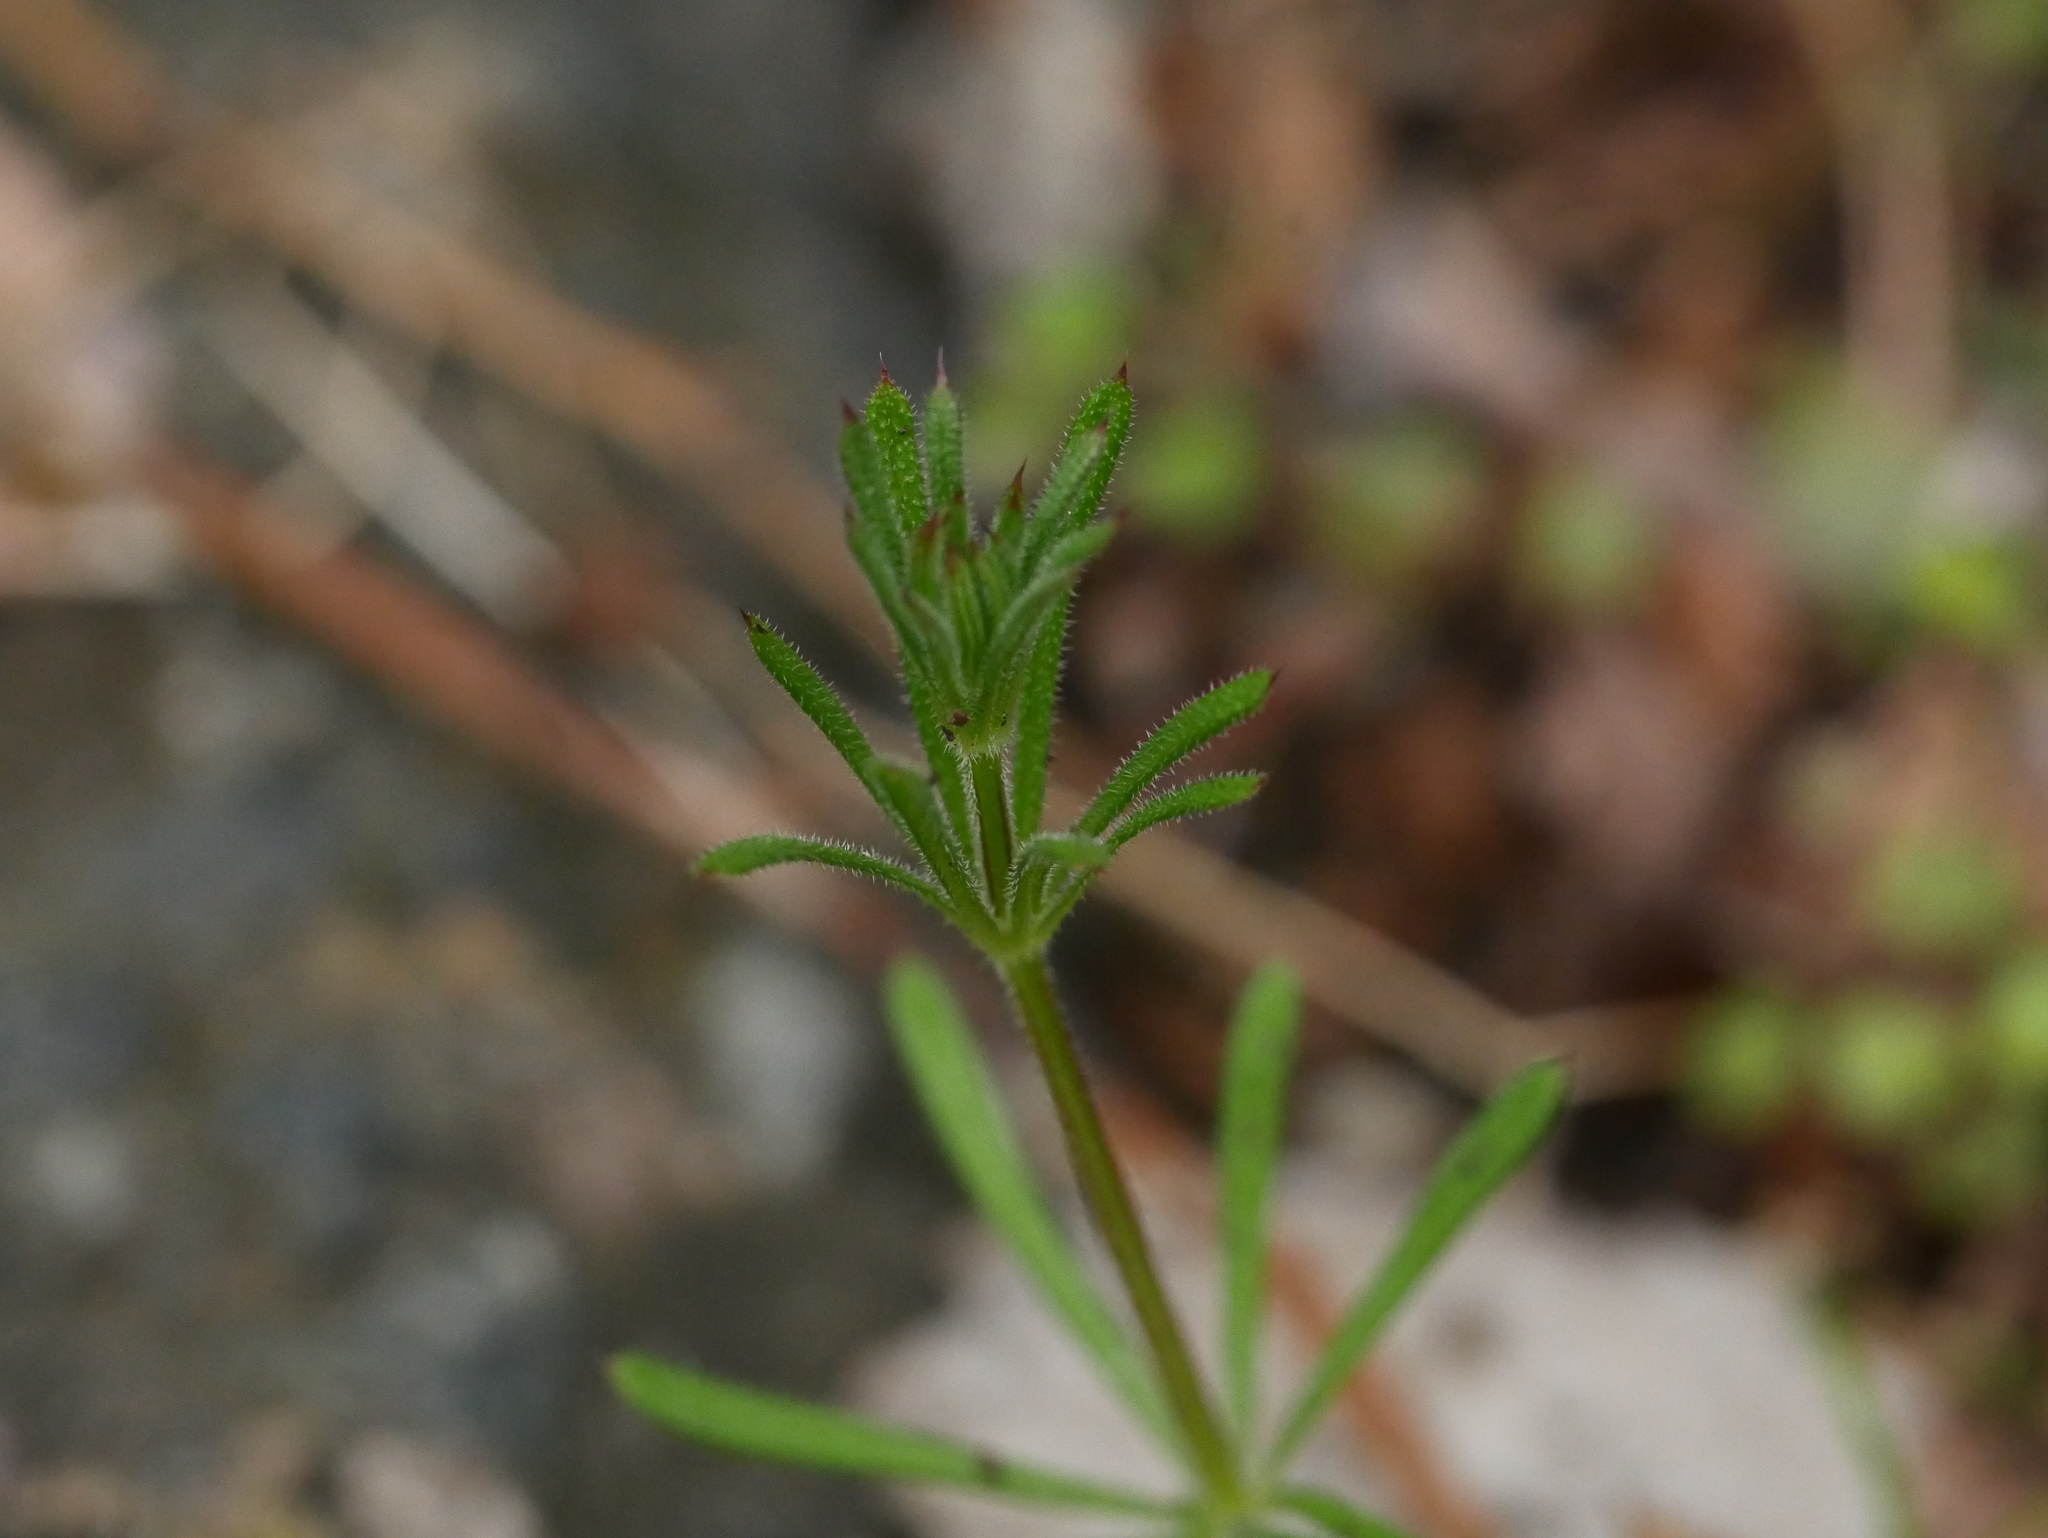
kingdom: Plantae
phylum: Tracheophyta
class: Magnoliopsida
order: Gentianales
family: Rubiaceae
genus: Galium
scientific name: Galium aparine
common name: Cleavers
